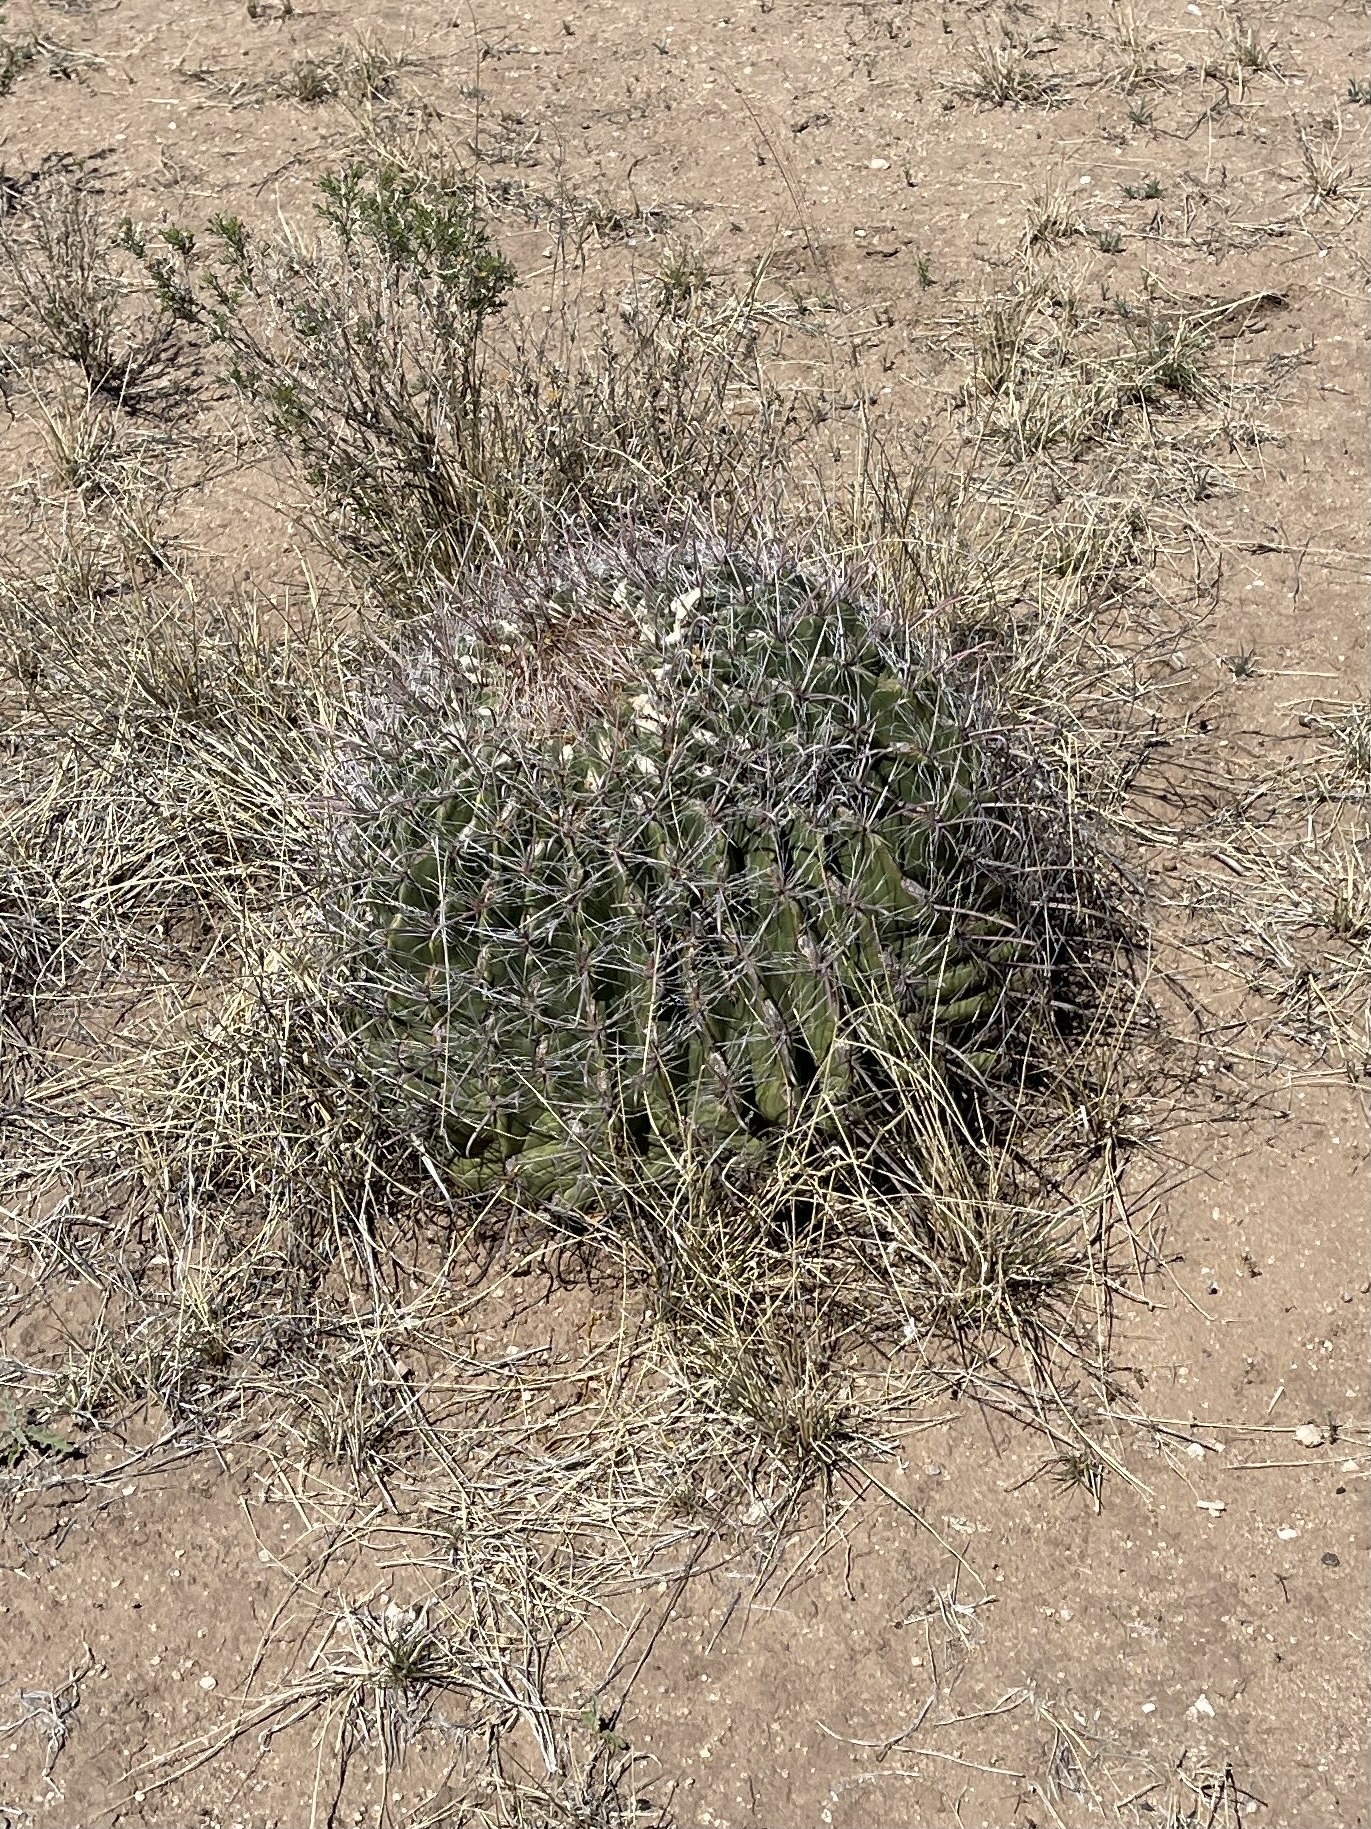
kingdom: Plantae
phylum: Tracheophyta
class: Magnoliopsida
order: Caryophyllales
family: Cactaceae
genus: Ferocactus
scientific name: Ferocactus wislizeni
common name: Candy barrel cactus
